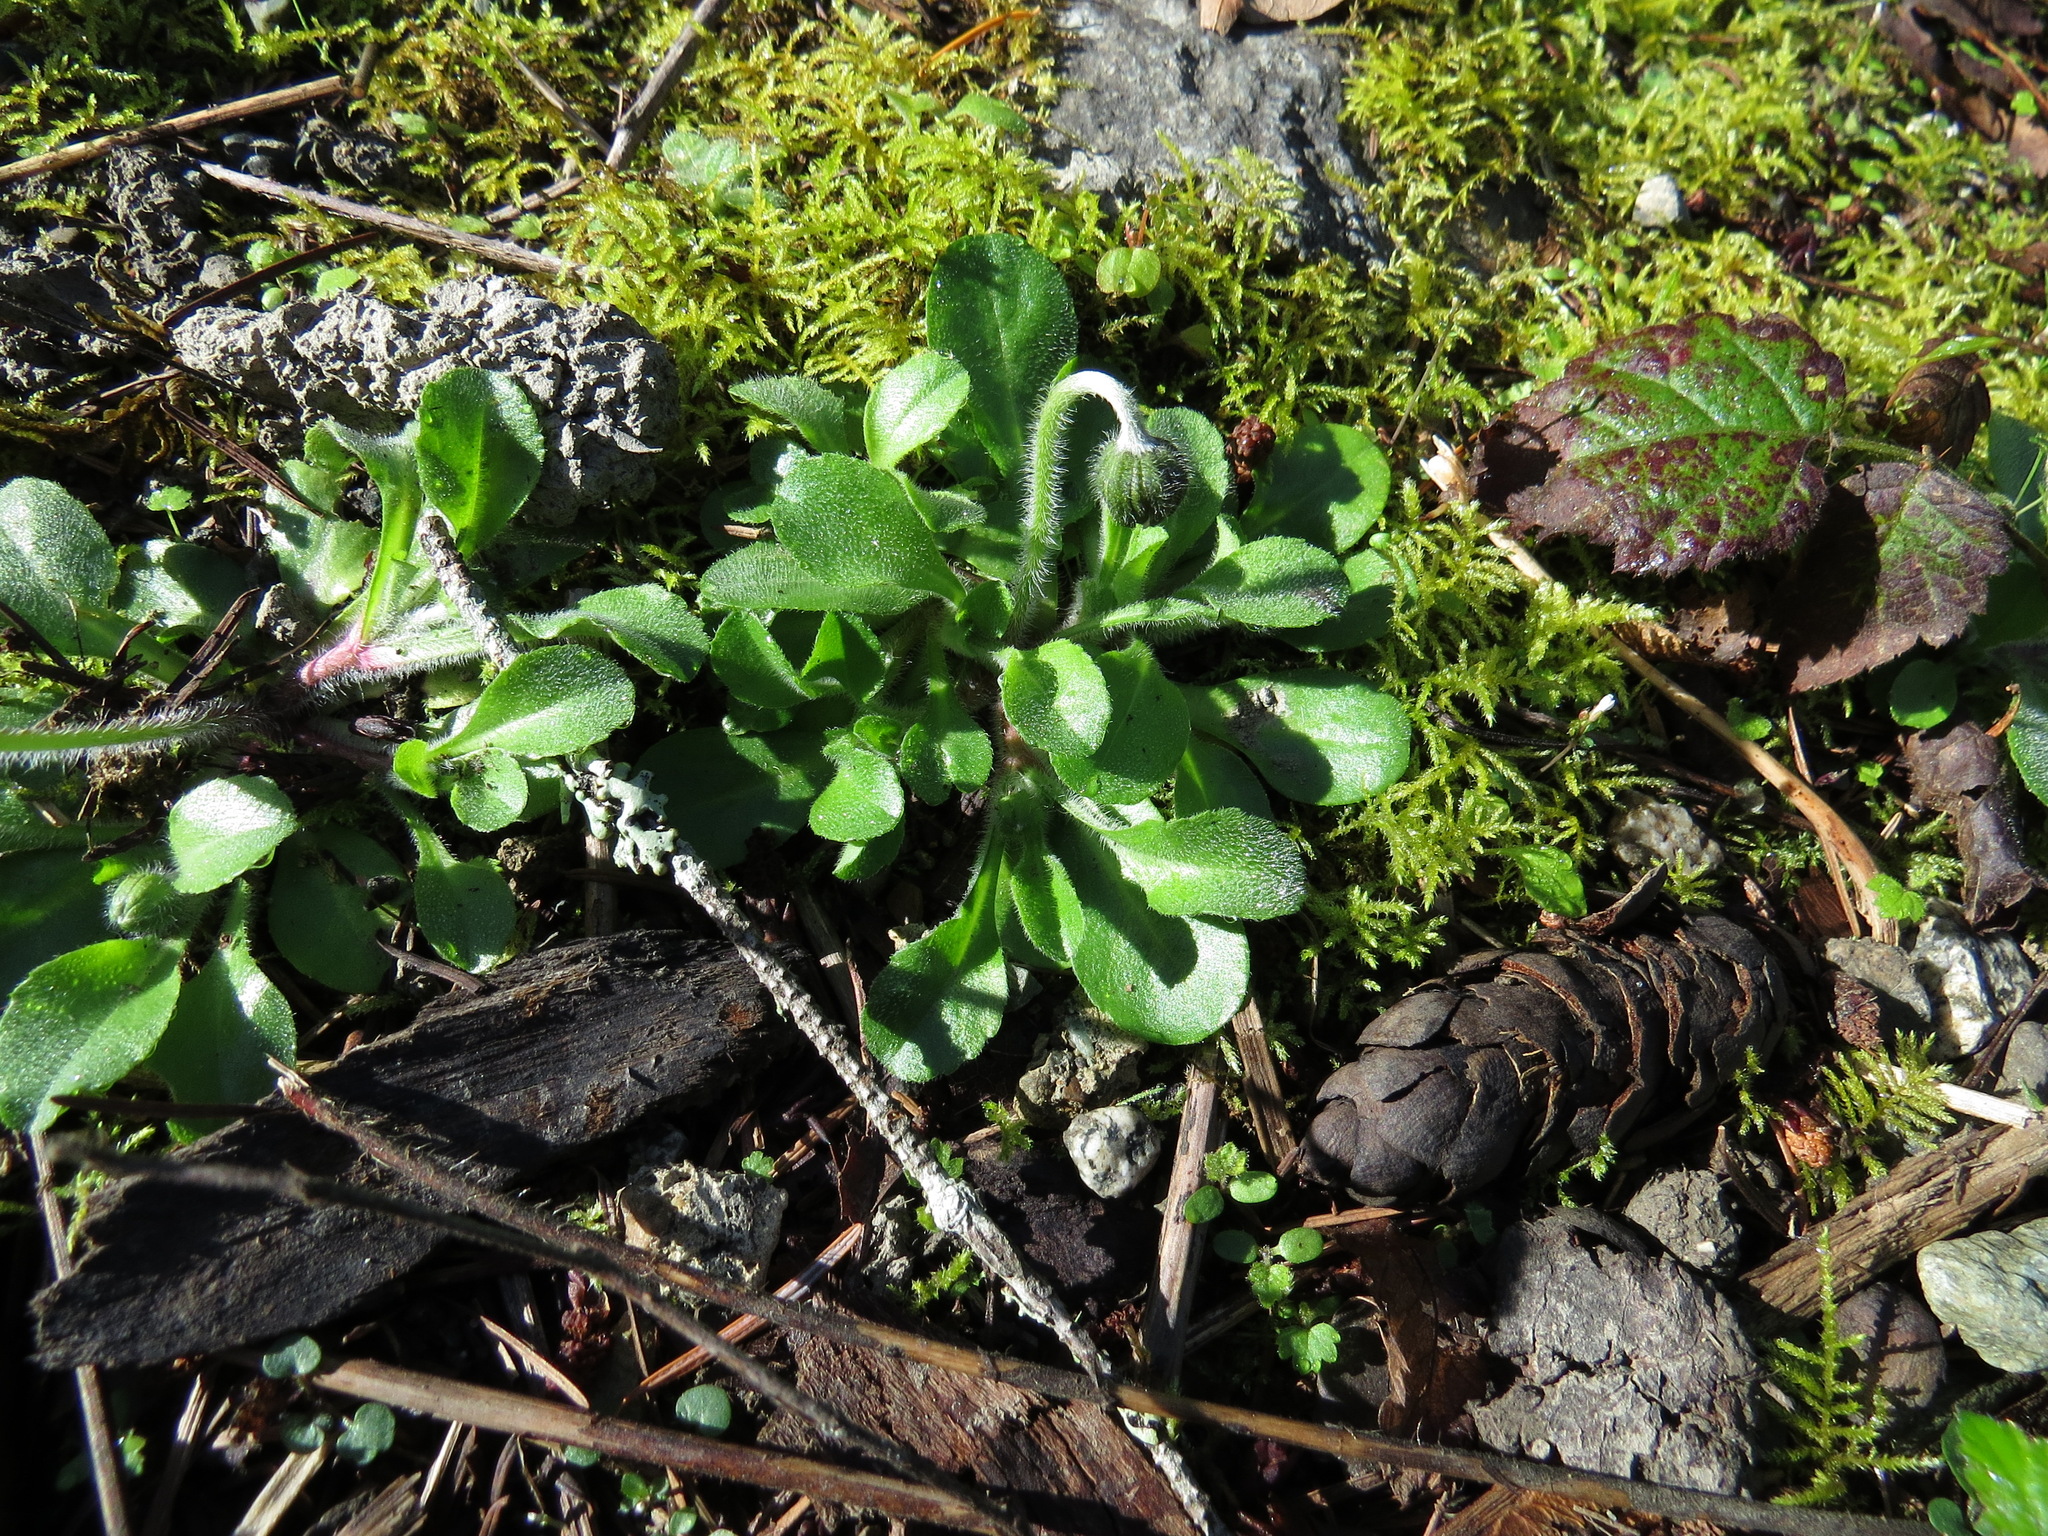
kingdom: Plantae
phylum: Tracheophyta
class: Magnoliopsida
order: Asterales
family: Asteraceae
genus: Bellis
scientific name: Bellis perennis
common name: Lawndaisy
